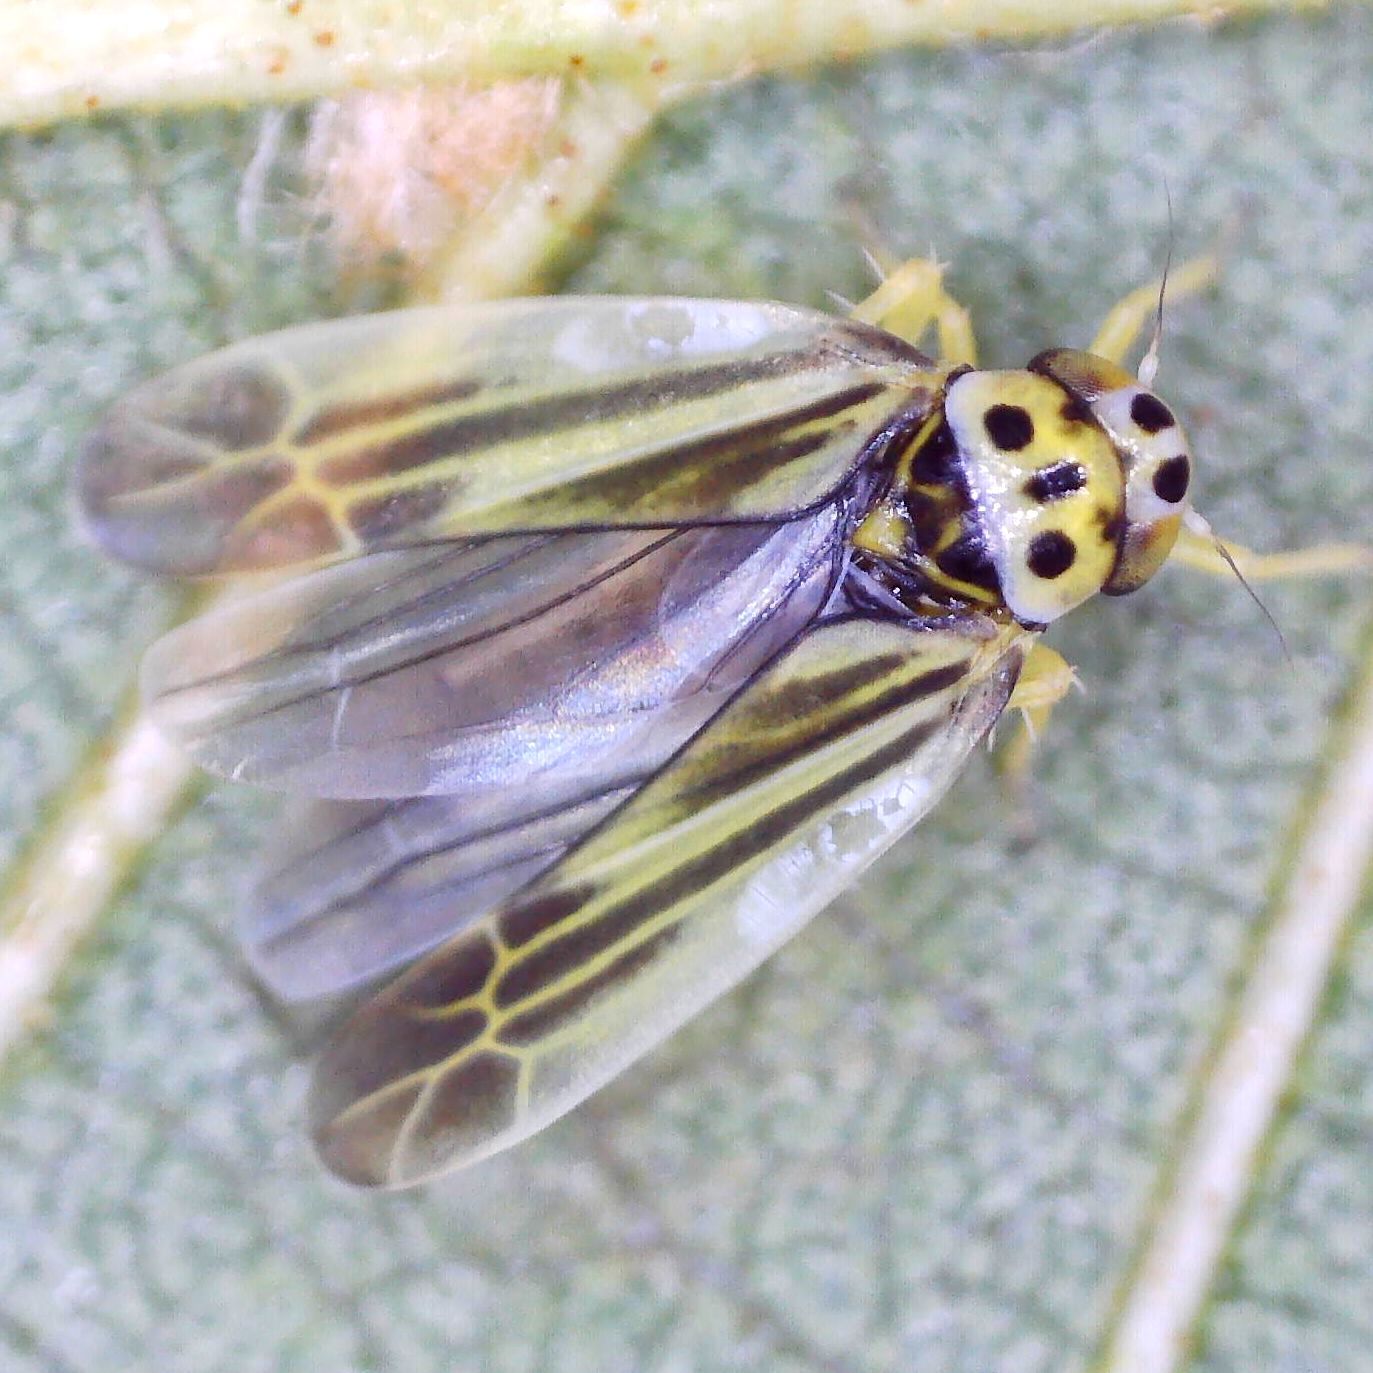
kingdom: Animalia
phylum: Arthropoda
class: Insecta
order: Hemiptera
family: Cicadellidae
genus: Eupterycyba
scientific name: Eupterycyba jucunda
